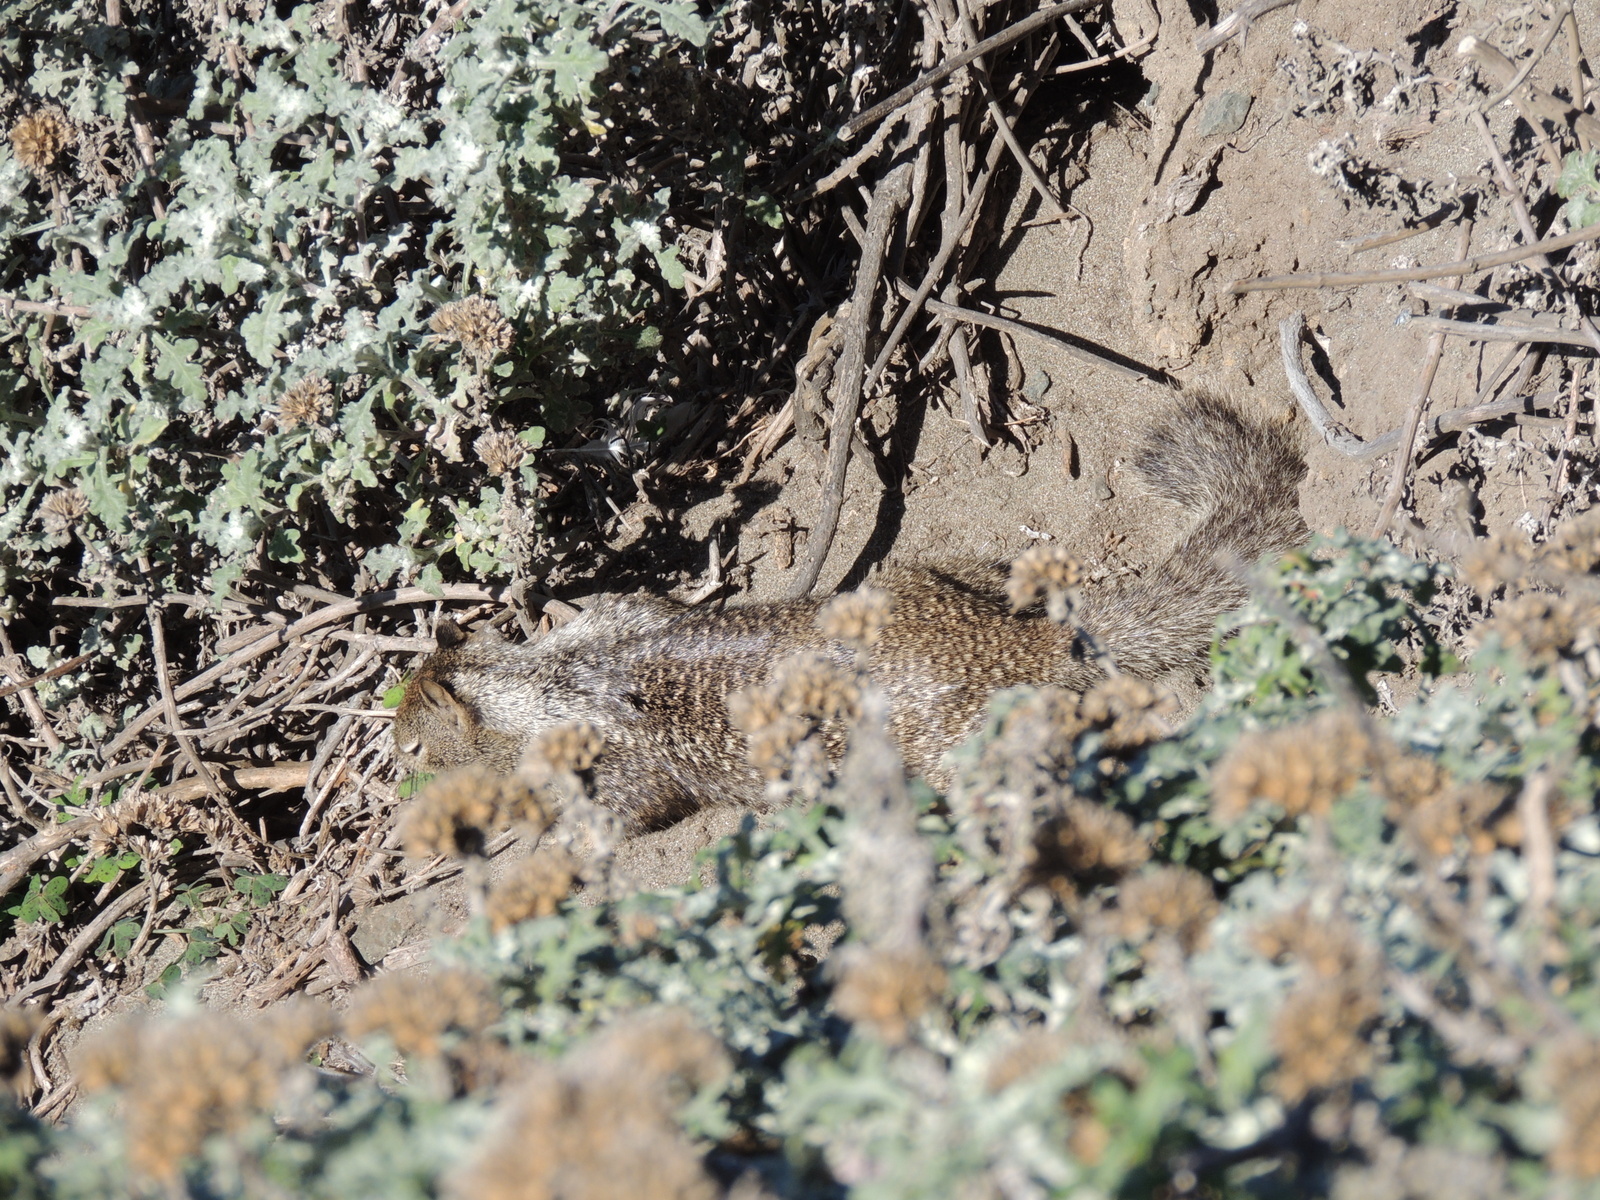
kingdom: Animalia
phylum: Chordata
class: Mammalia
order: Rodentia
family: Sciuridae
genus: Otospermophilus
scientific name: Otospermophilus beecheyi
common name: California ground squirrel
